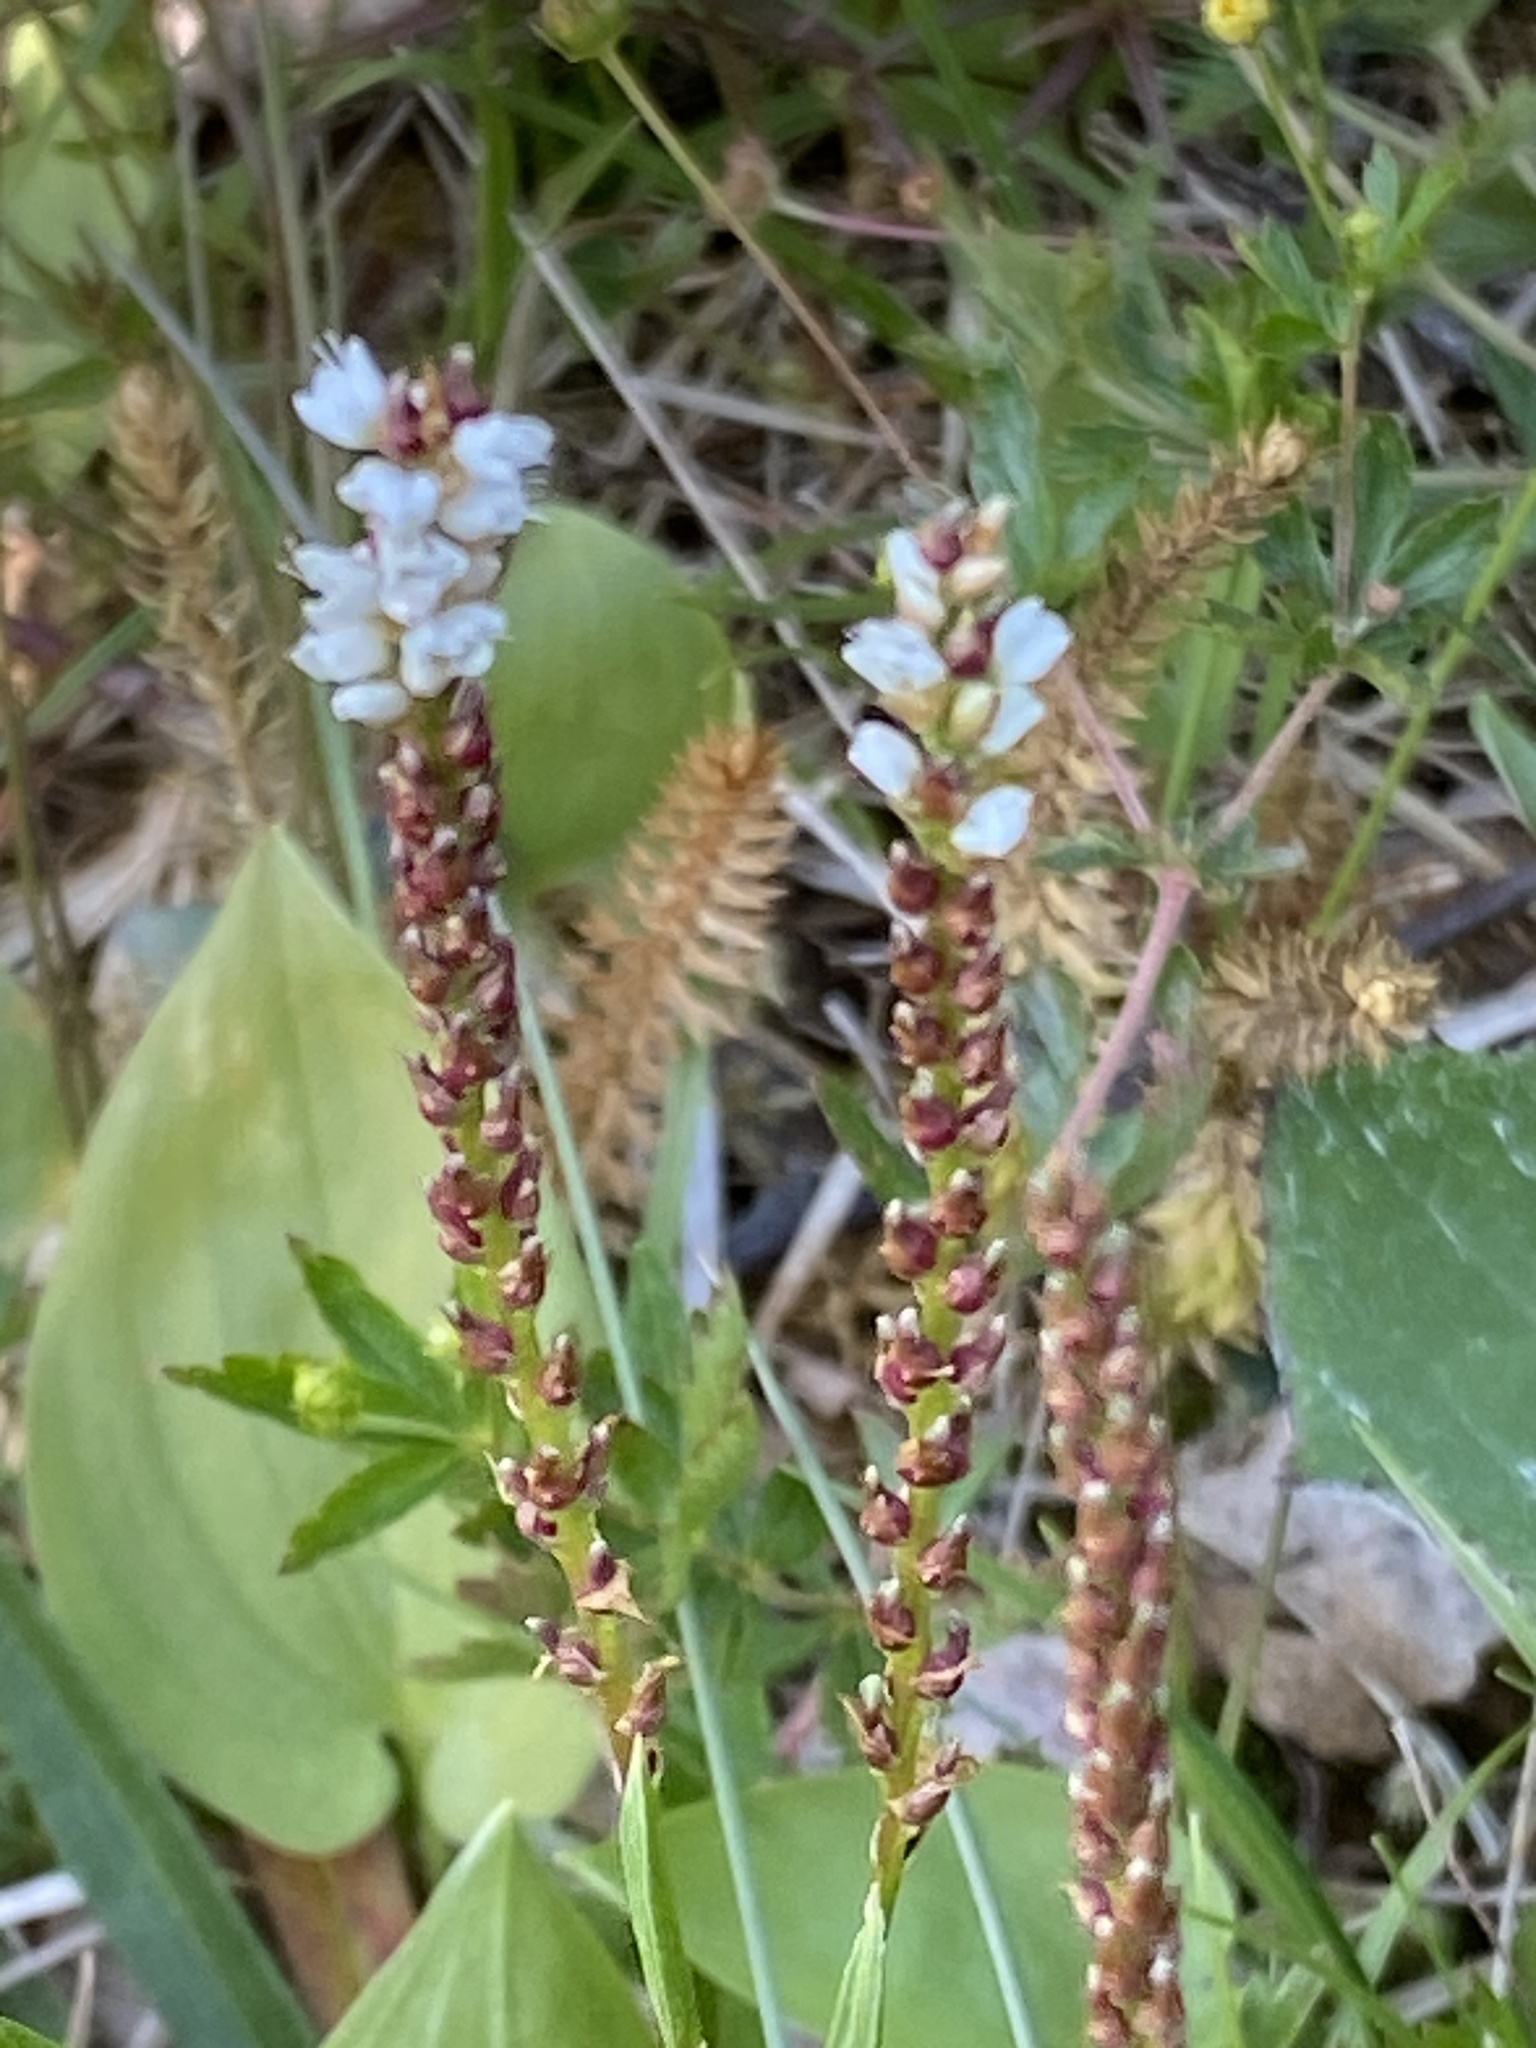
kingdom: Plantae
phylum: Tracheophyta
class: Magnoliopsida
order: Caryophyllales
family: Polygonaceae
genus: Bistorta
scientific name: Bistorta vivipara
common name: Alpine bistort
